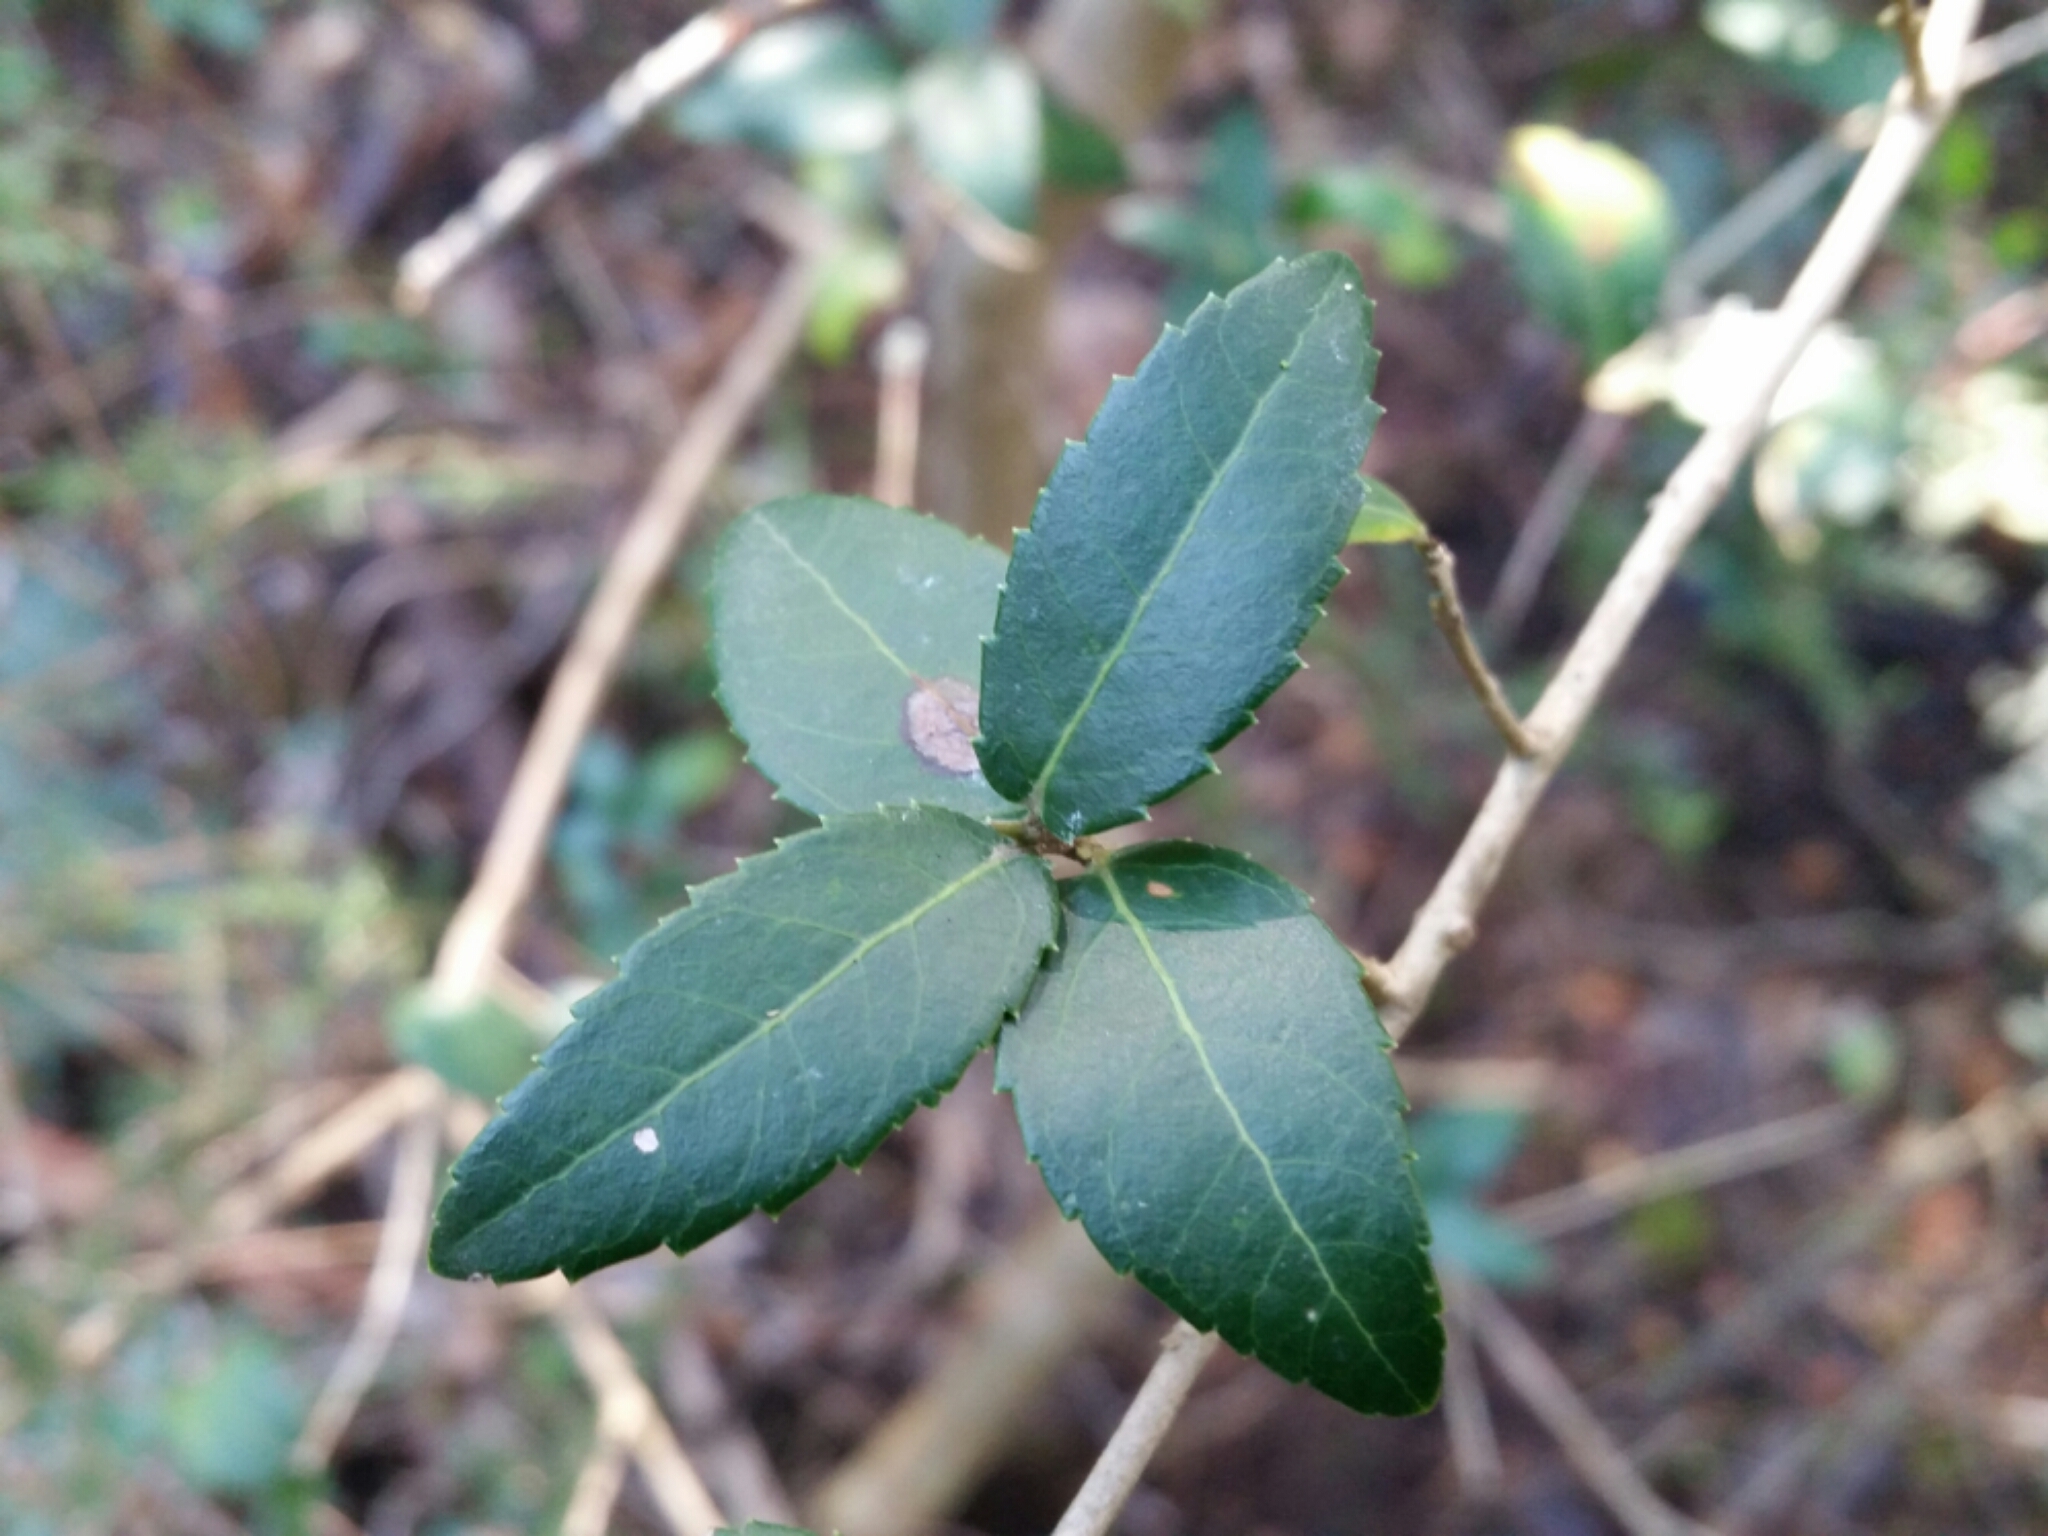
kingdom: Plantae
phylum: Tracheophyta
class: Magnoliopsida
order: Lamiales
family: Oleaceae
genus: Phillyrea
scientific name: Phillyrea latifolia
